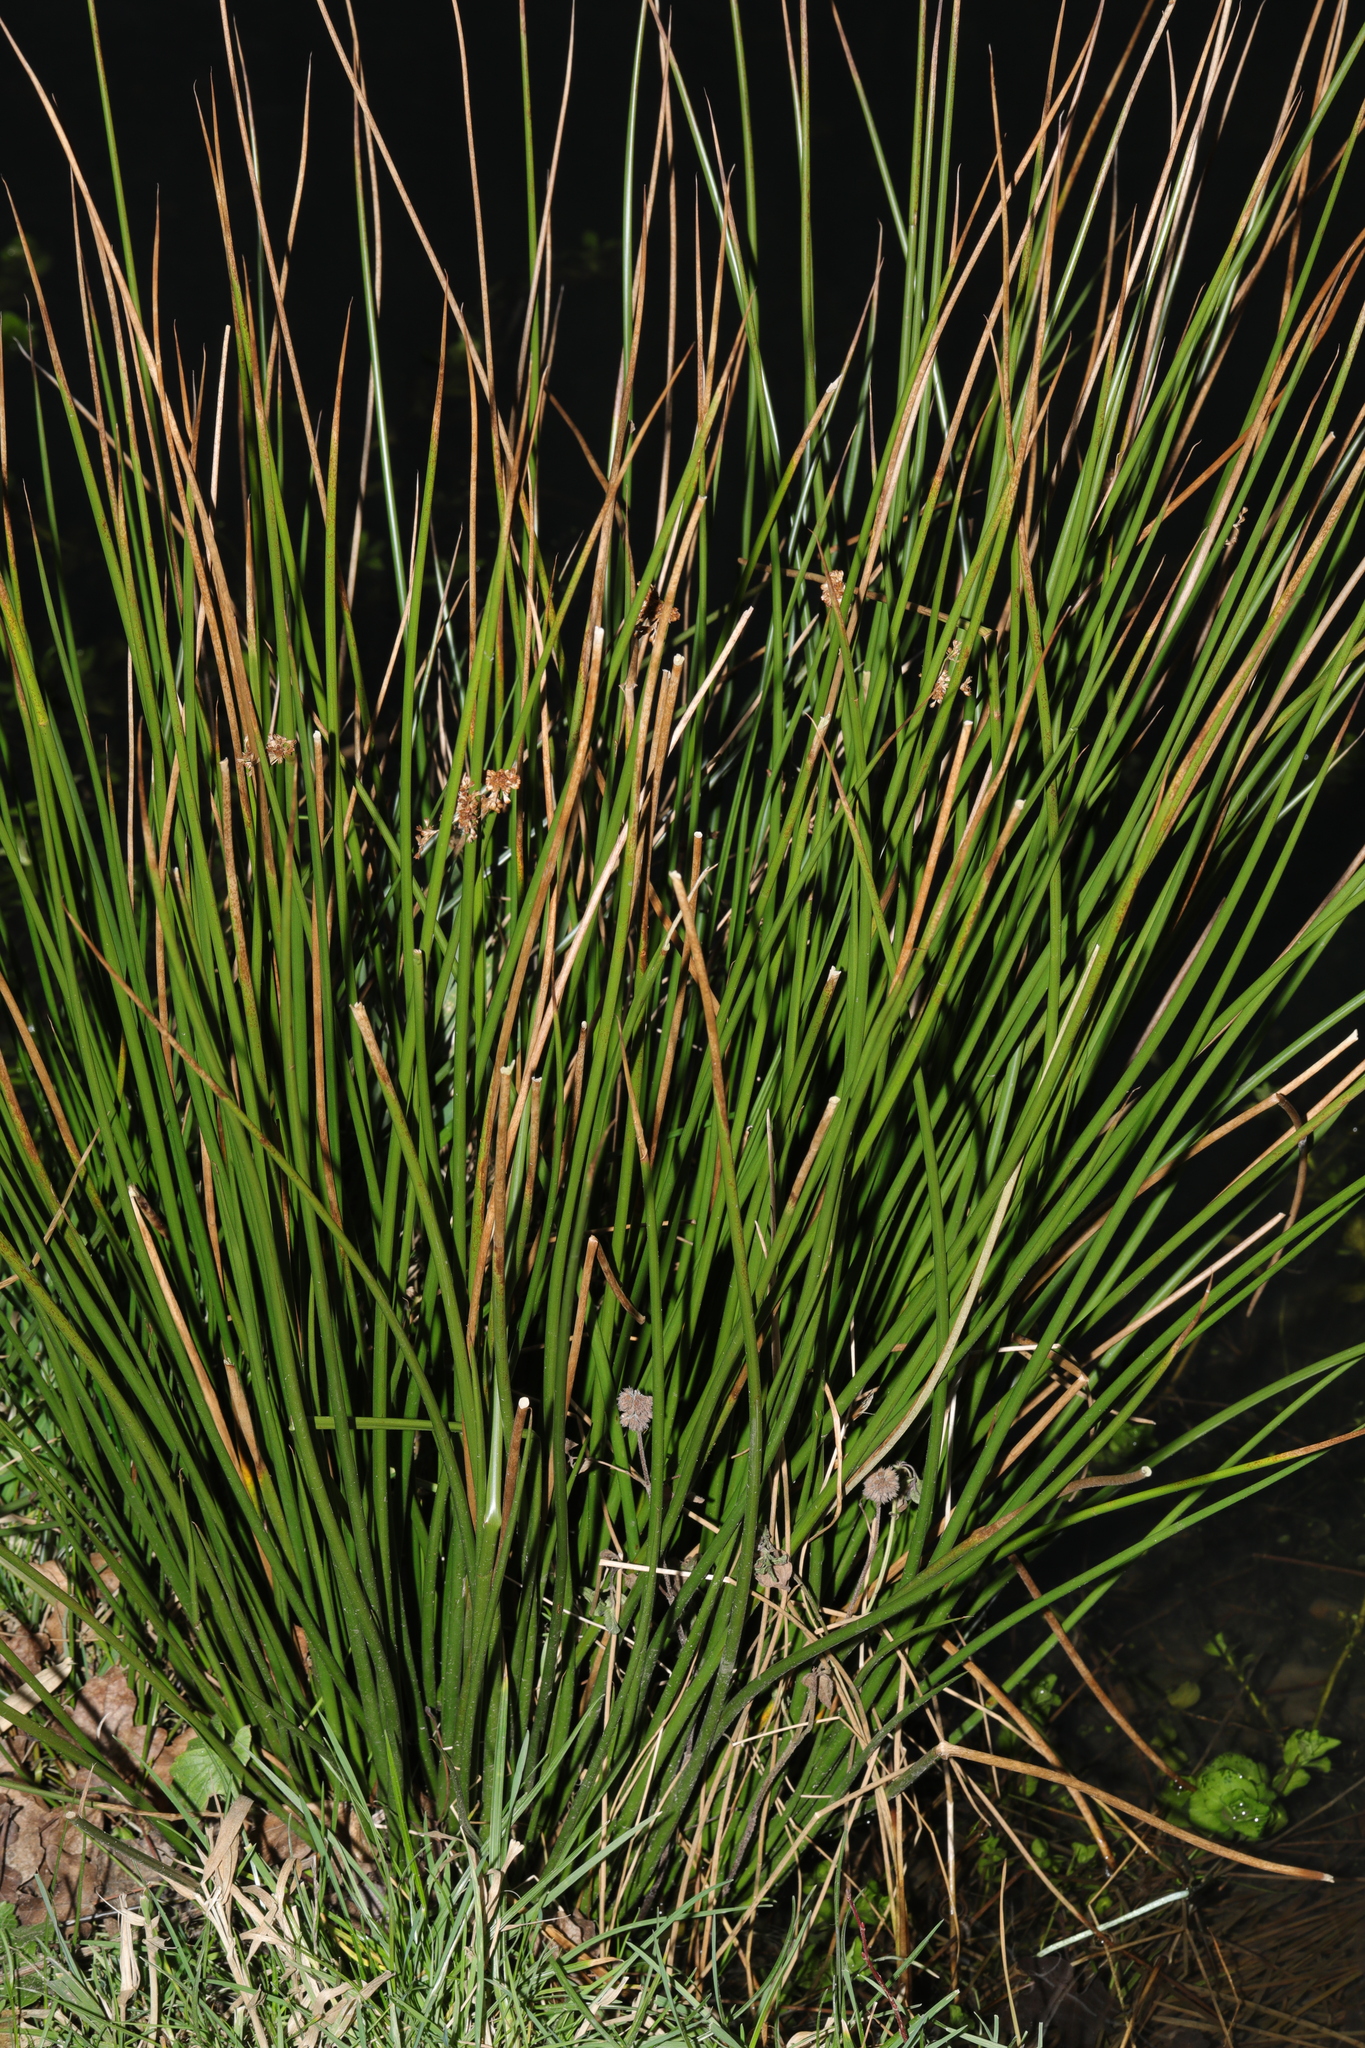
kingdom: Plantae
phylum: Tracheophyta
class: Liliopsida
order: Poales
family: Juncaceae
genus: Juncus
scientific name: Juncus effusus
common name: Soft rush
